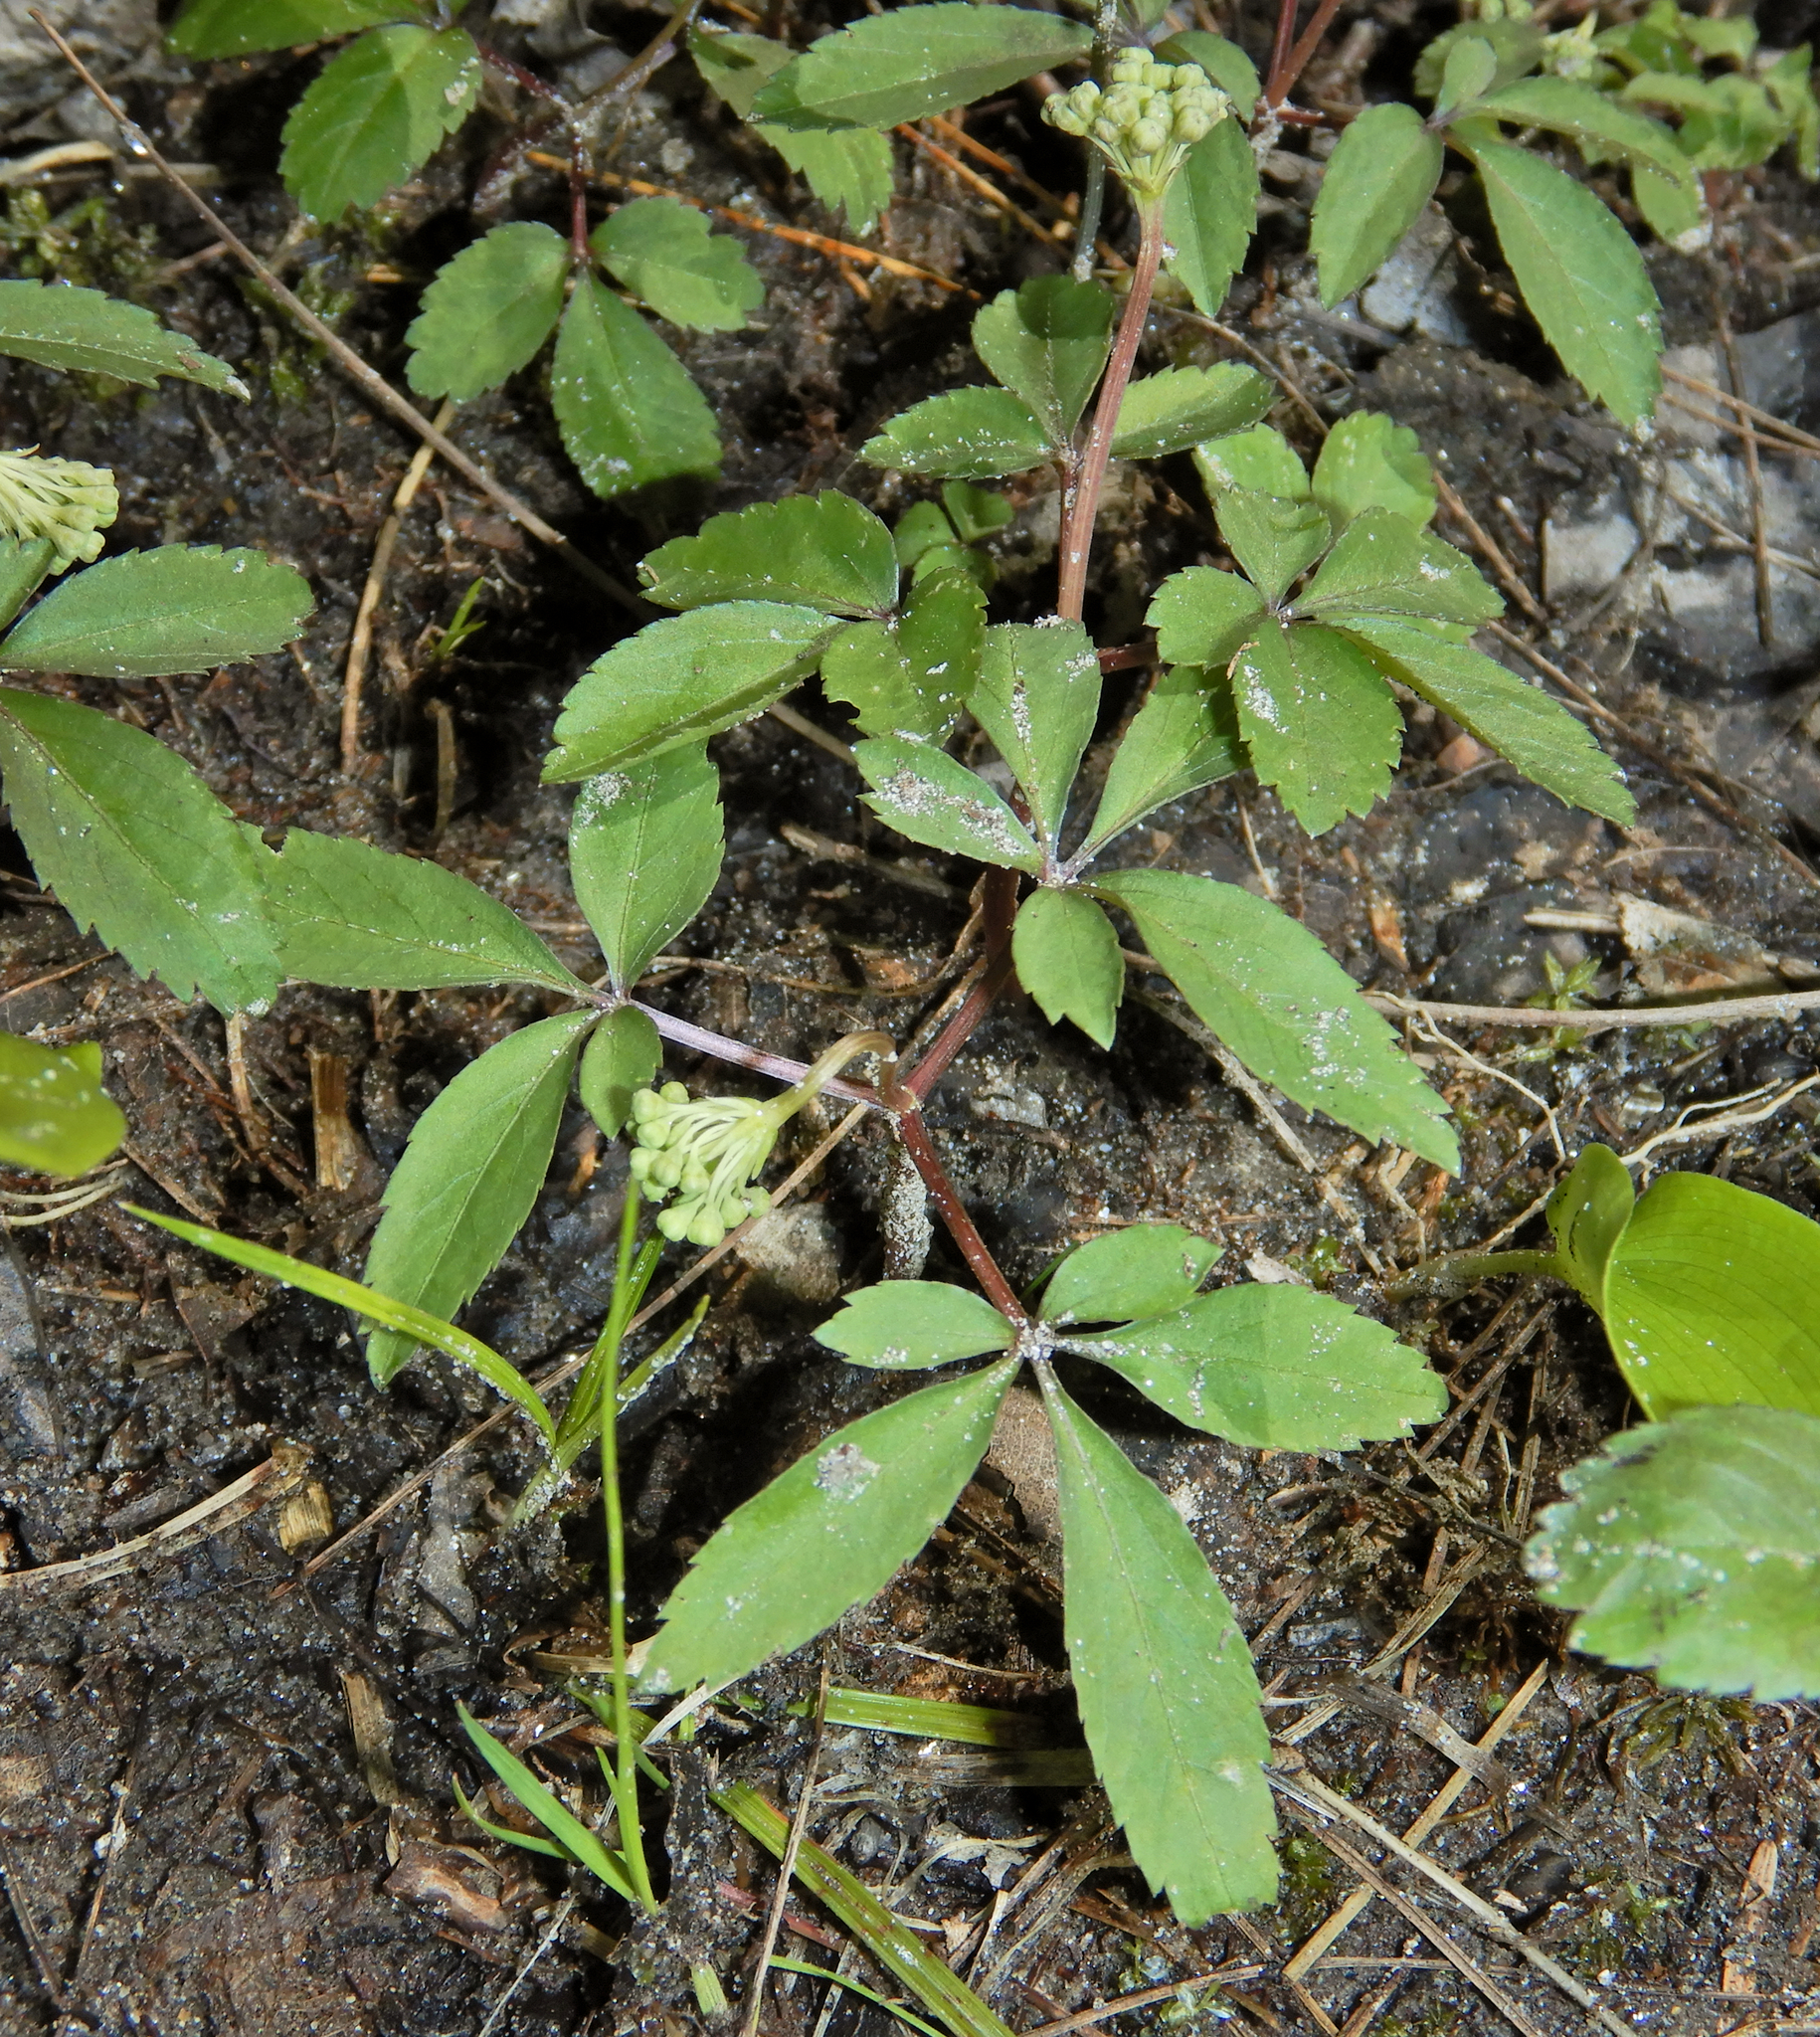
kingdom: Plantae
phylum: Tracheophyta
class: Magnoliopsida
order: Apiales
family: Araliaceae
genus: Panax
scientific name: Panax trifolius
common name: Dwarf ginseng
